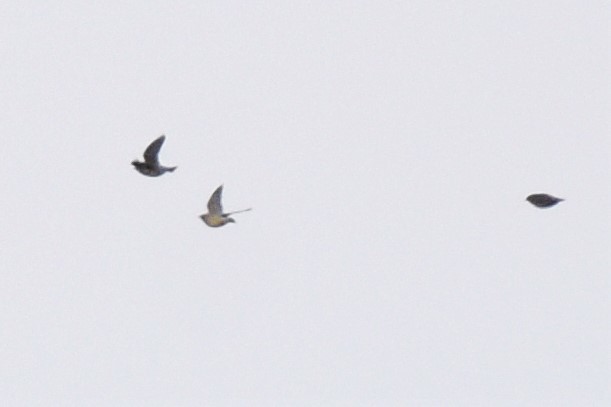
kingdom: Animalia
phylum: Chordata
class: Aves
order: Passeriformes
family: Bombycillidae
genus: Bombycilla
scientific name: Bombycilla cedrorum
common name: Cedar waxwing
